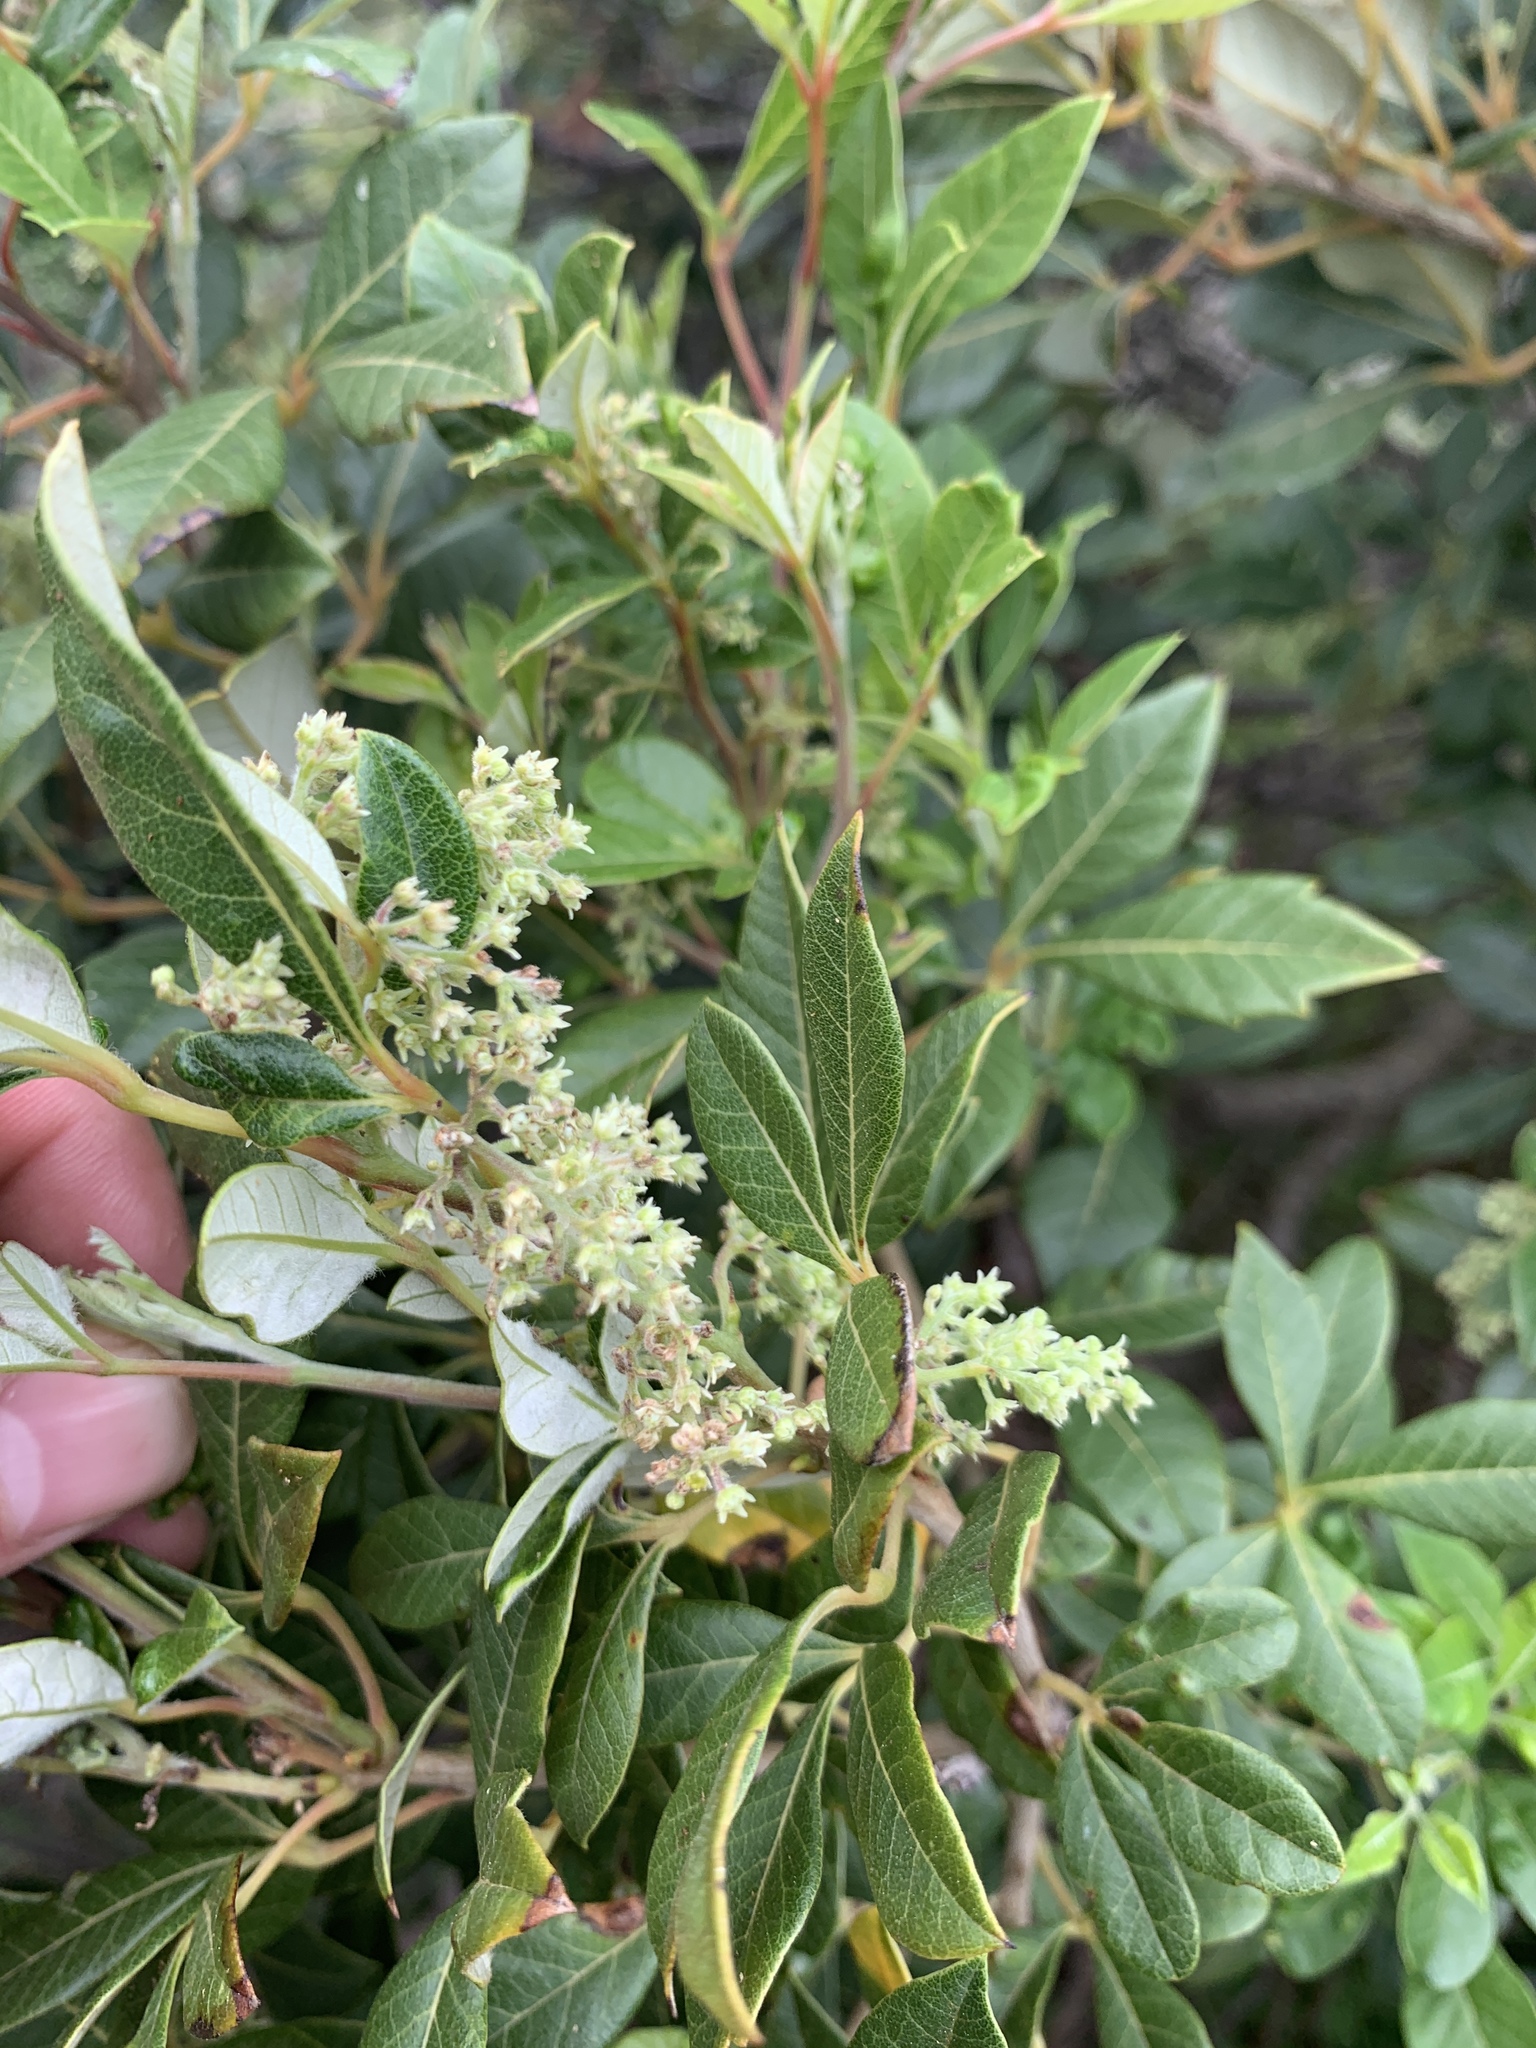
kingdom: Plantae
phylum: Tracheophyta
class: Magnoliopsida
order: Sapindales
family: Anacardiaceae
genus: Searsia
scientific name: Searsia tomentosa
